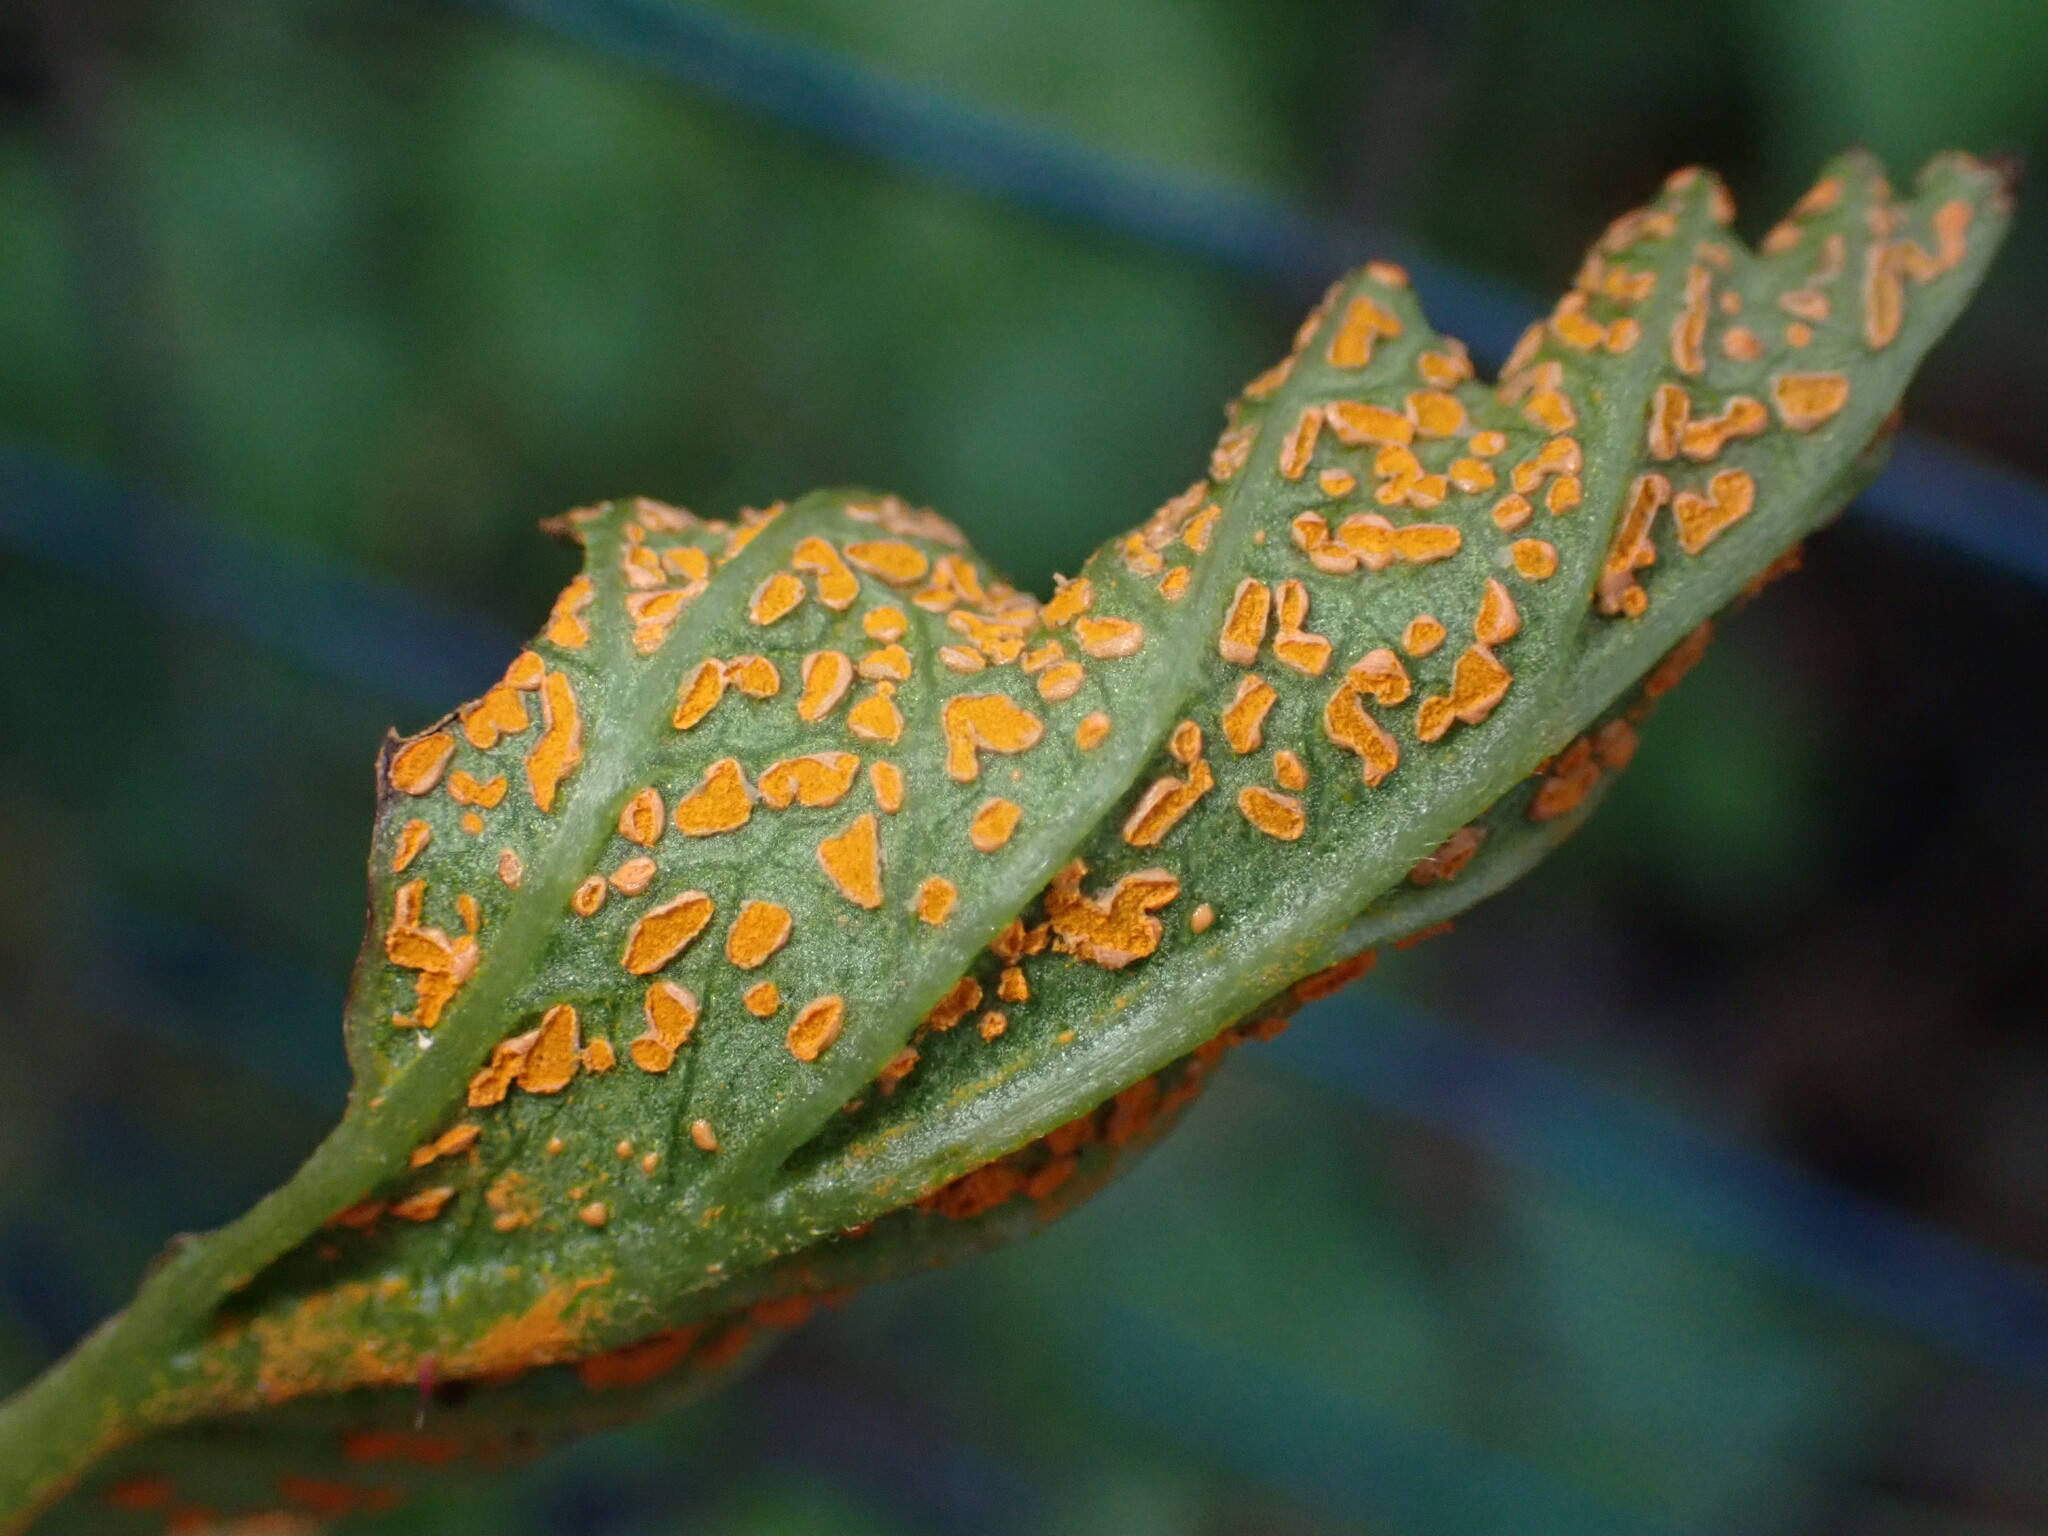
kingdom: Fungi
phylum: Basidiomycota
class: Pucciniomycetes
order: Pucciniales
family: Phragmidiaceae
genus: Arthuriomyces
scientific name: Arthuriomyces peckianus
